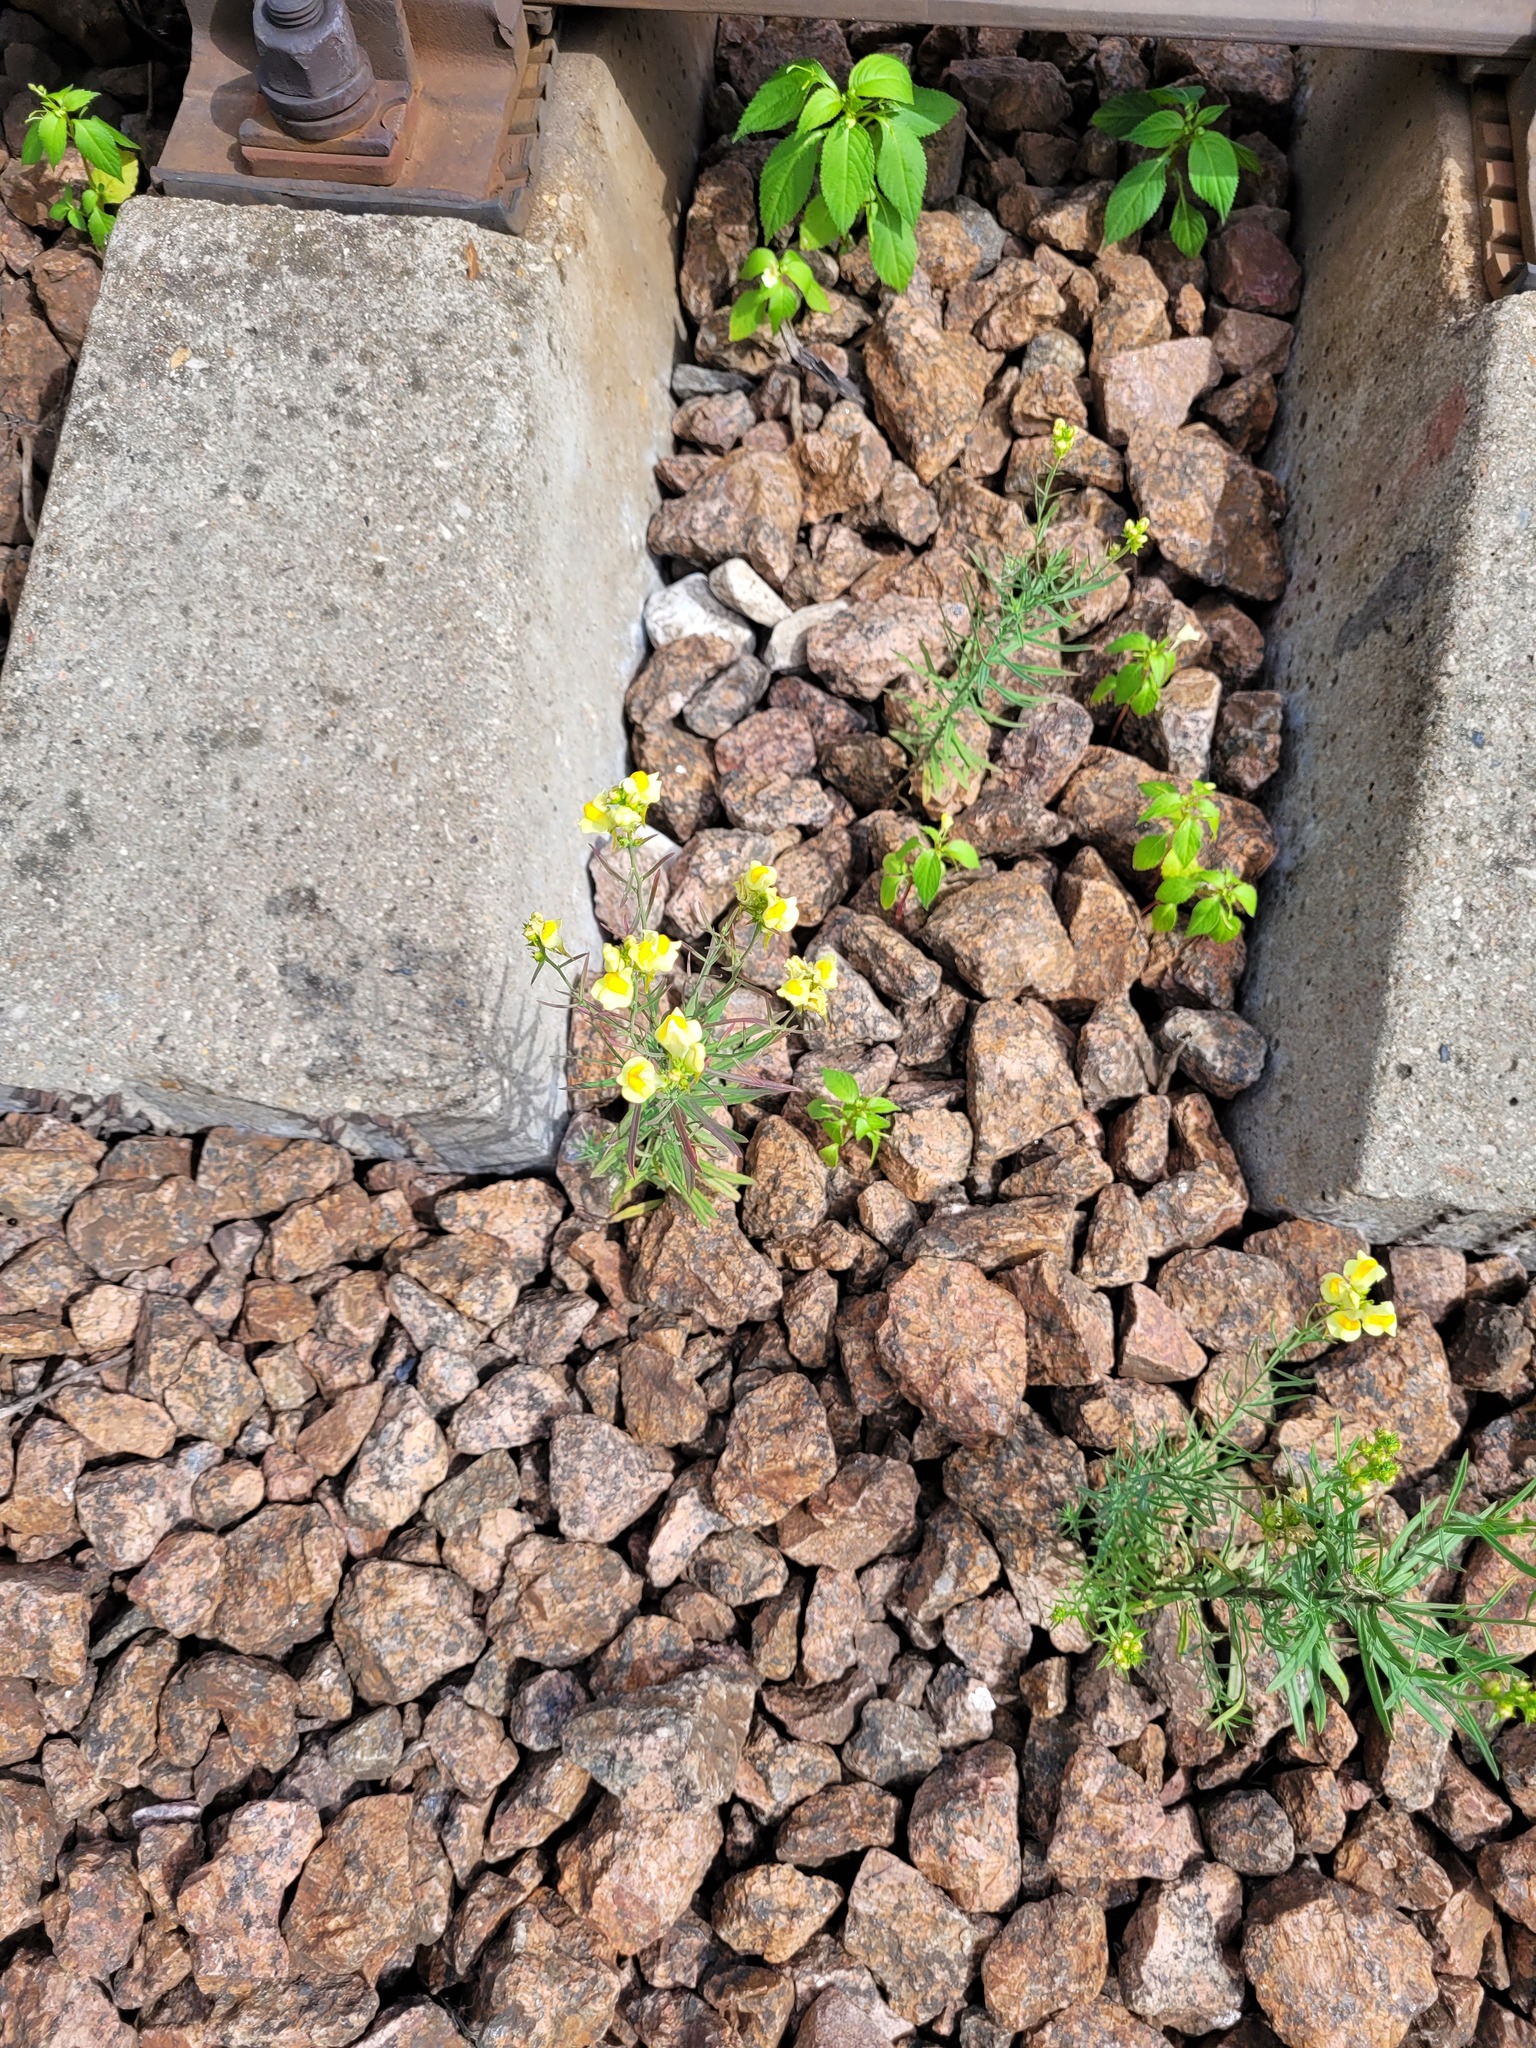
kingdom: Plantae
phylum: Tracheophyta
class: Magnoliopsida
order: Lamiales
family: Plantaginaceae
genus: Linaria
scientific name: Linaria vulgaris
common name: Butter and eggs
